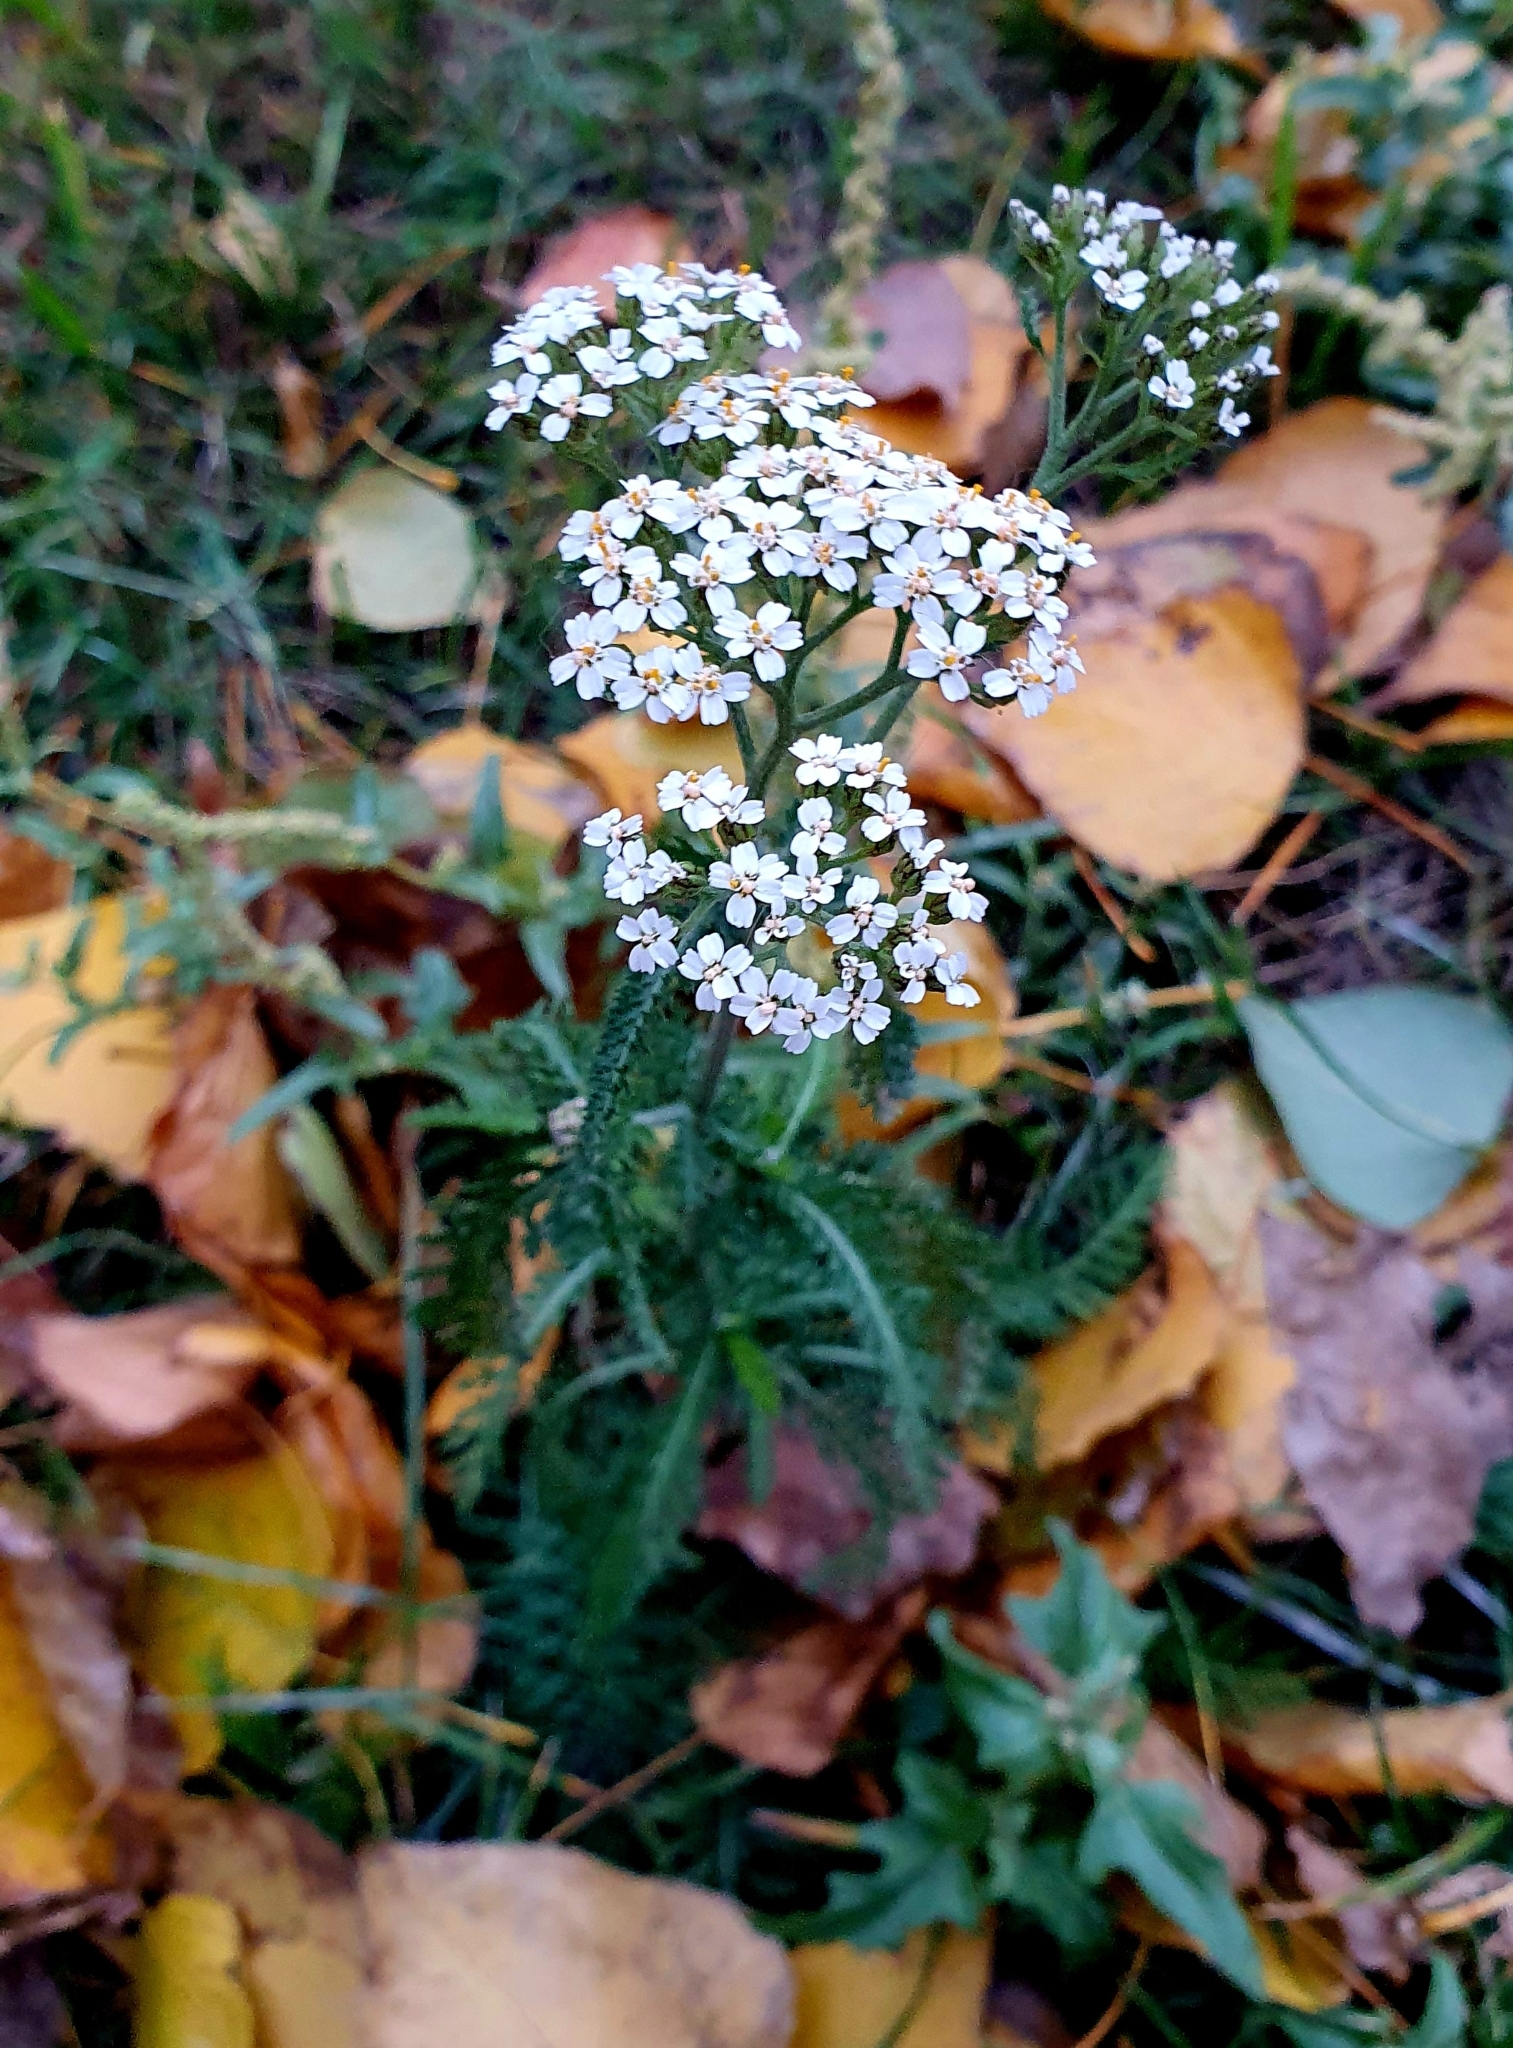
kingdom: Plantae
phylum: Tracheophyta
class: Magnoliopsida
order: Asterales
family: Asteraceae
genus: Achillea
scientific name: Achillea millefolium
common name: Yarrow
